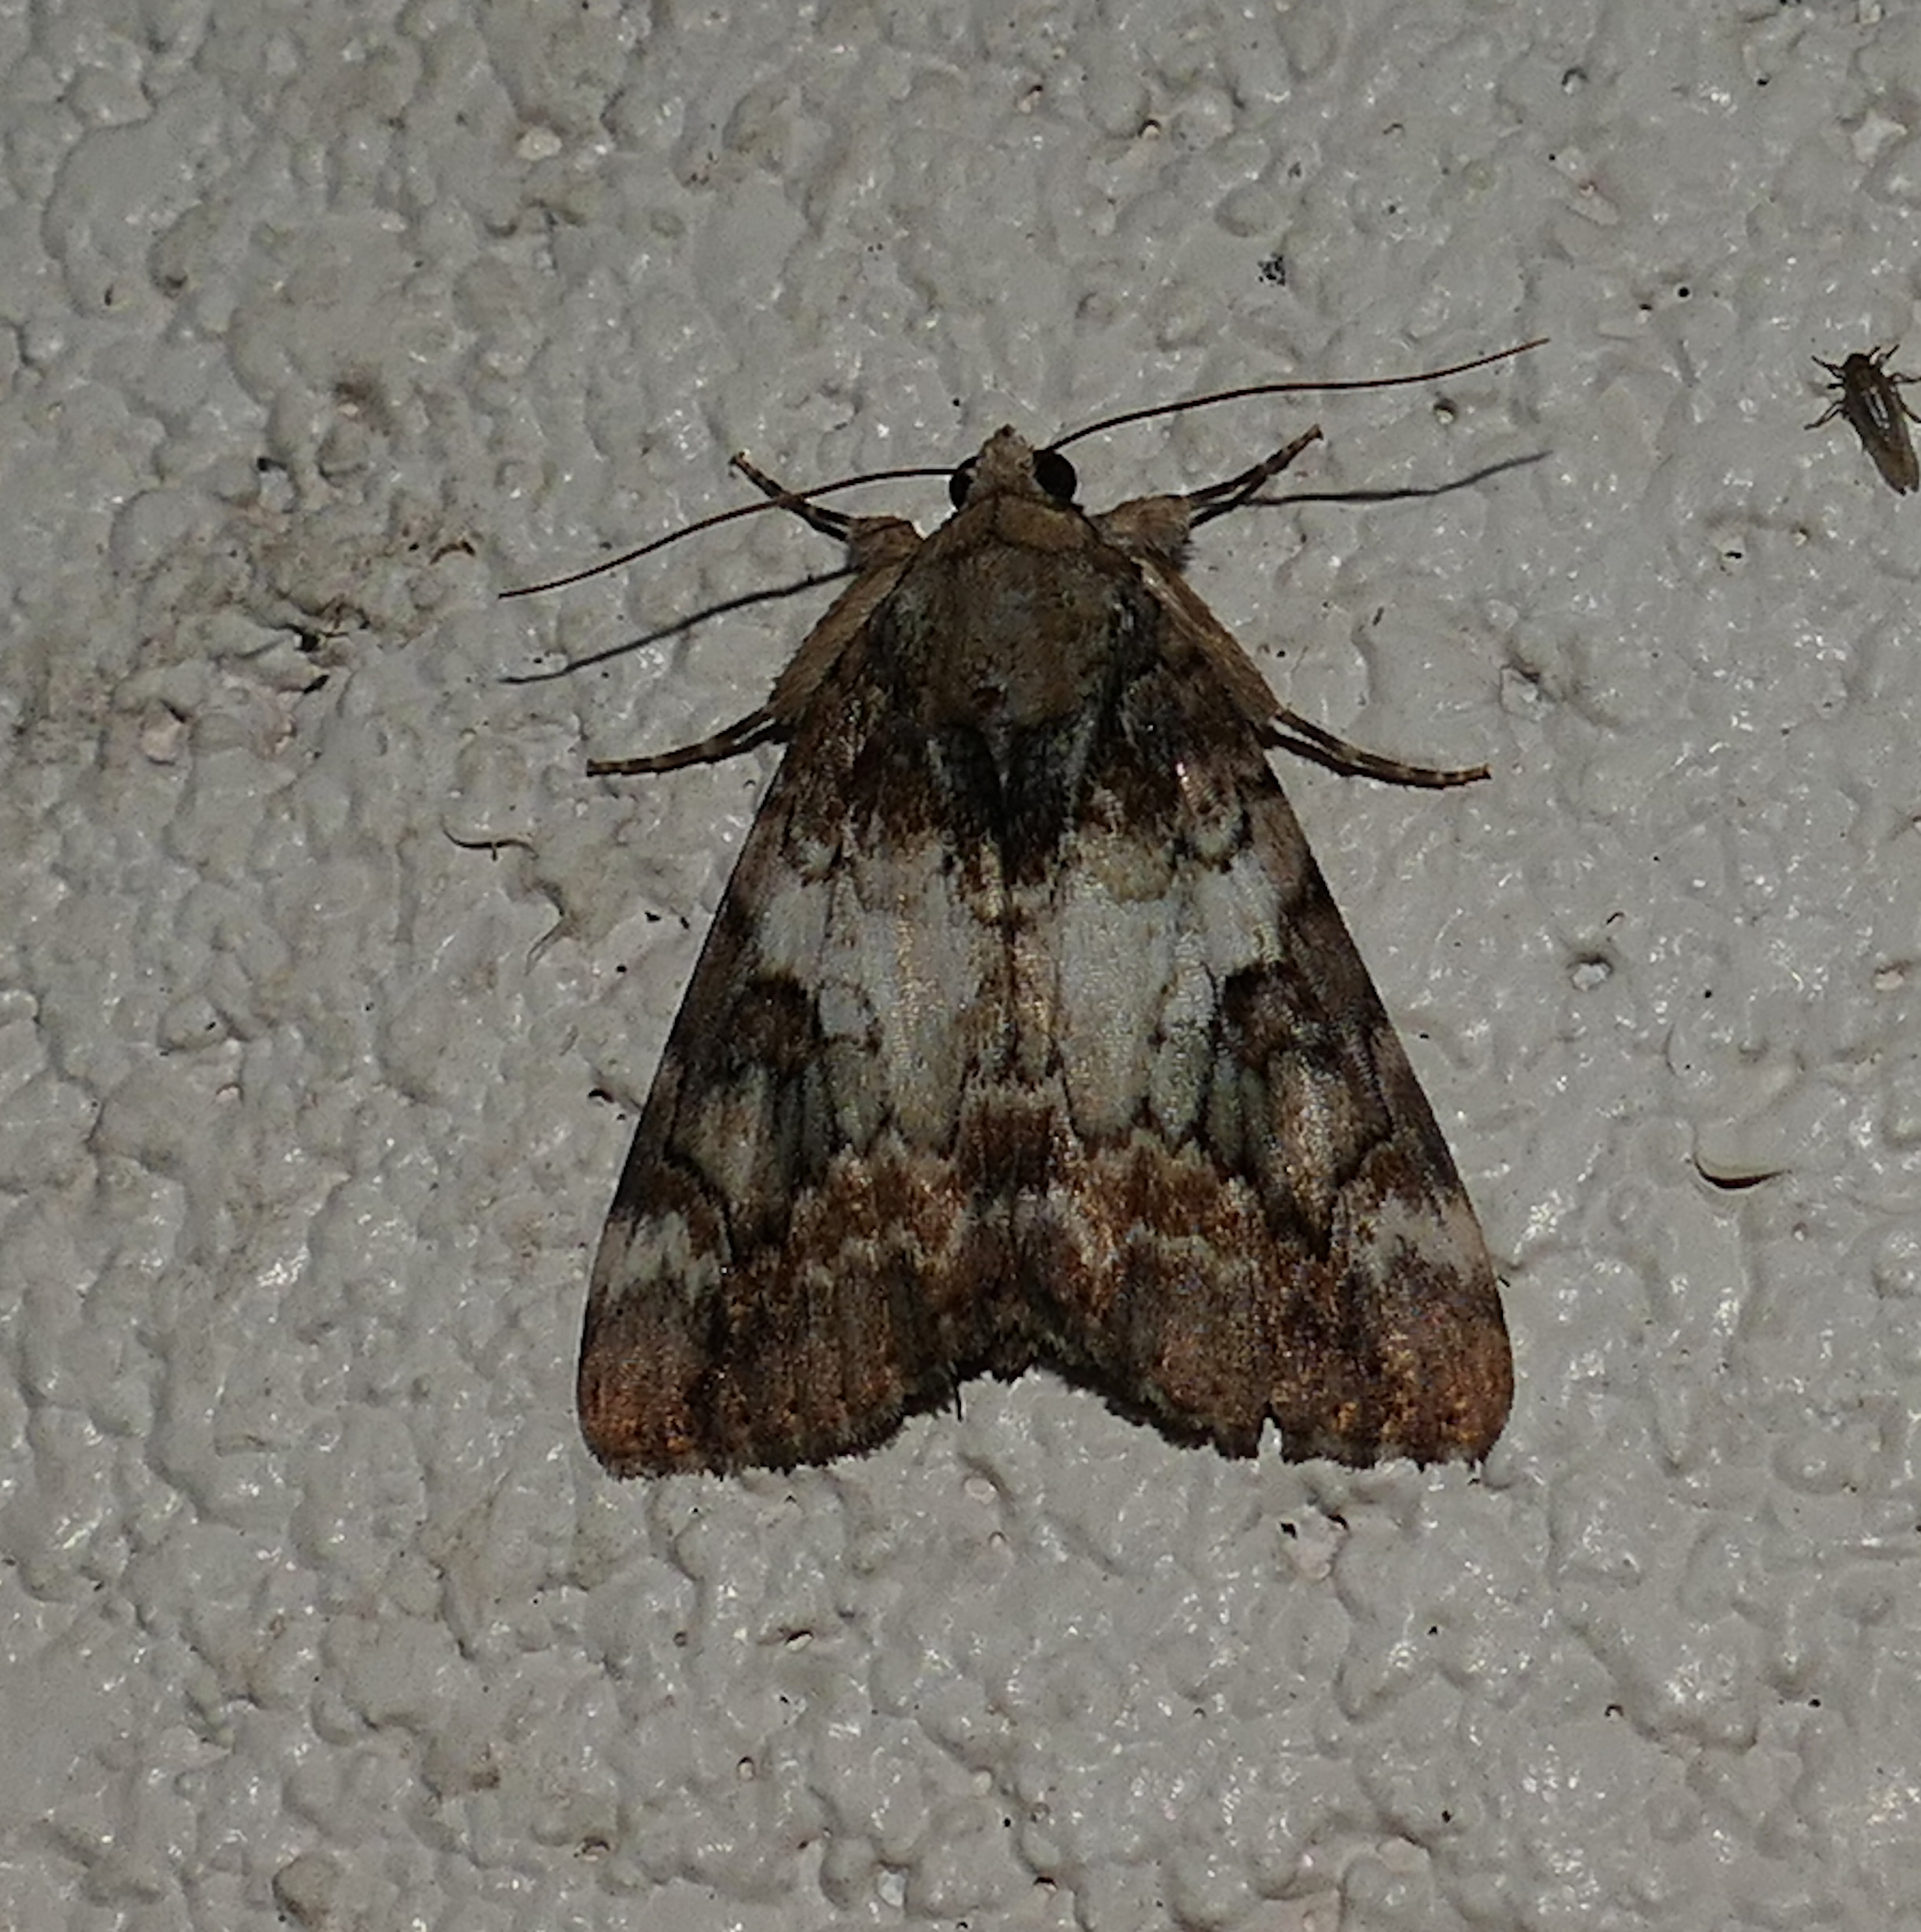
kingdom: Animalia
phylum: Arthropoda
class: Insecta
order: Lepidoptera
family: Erebidae
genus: Catocala
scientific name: Catocala micronympha
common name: Little nymph underwing
